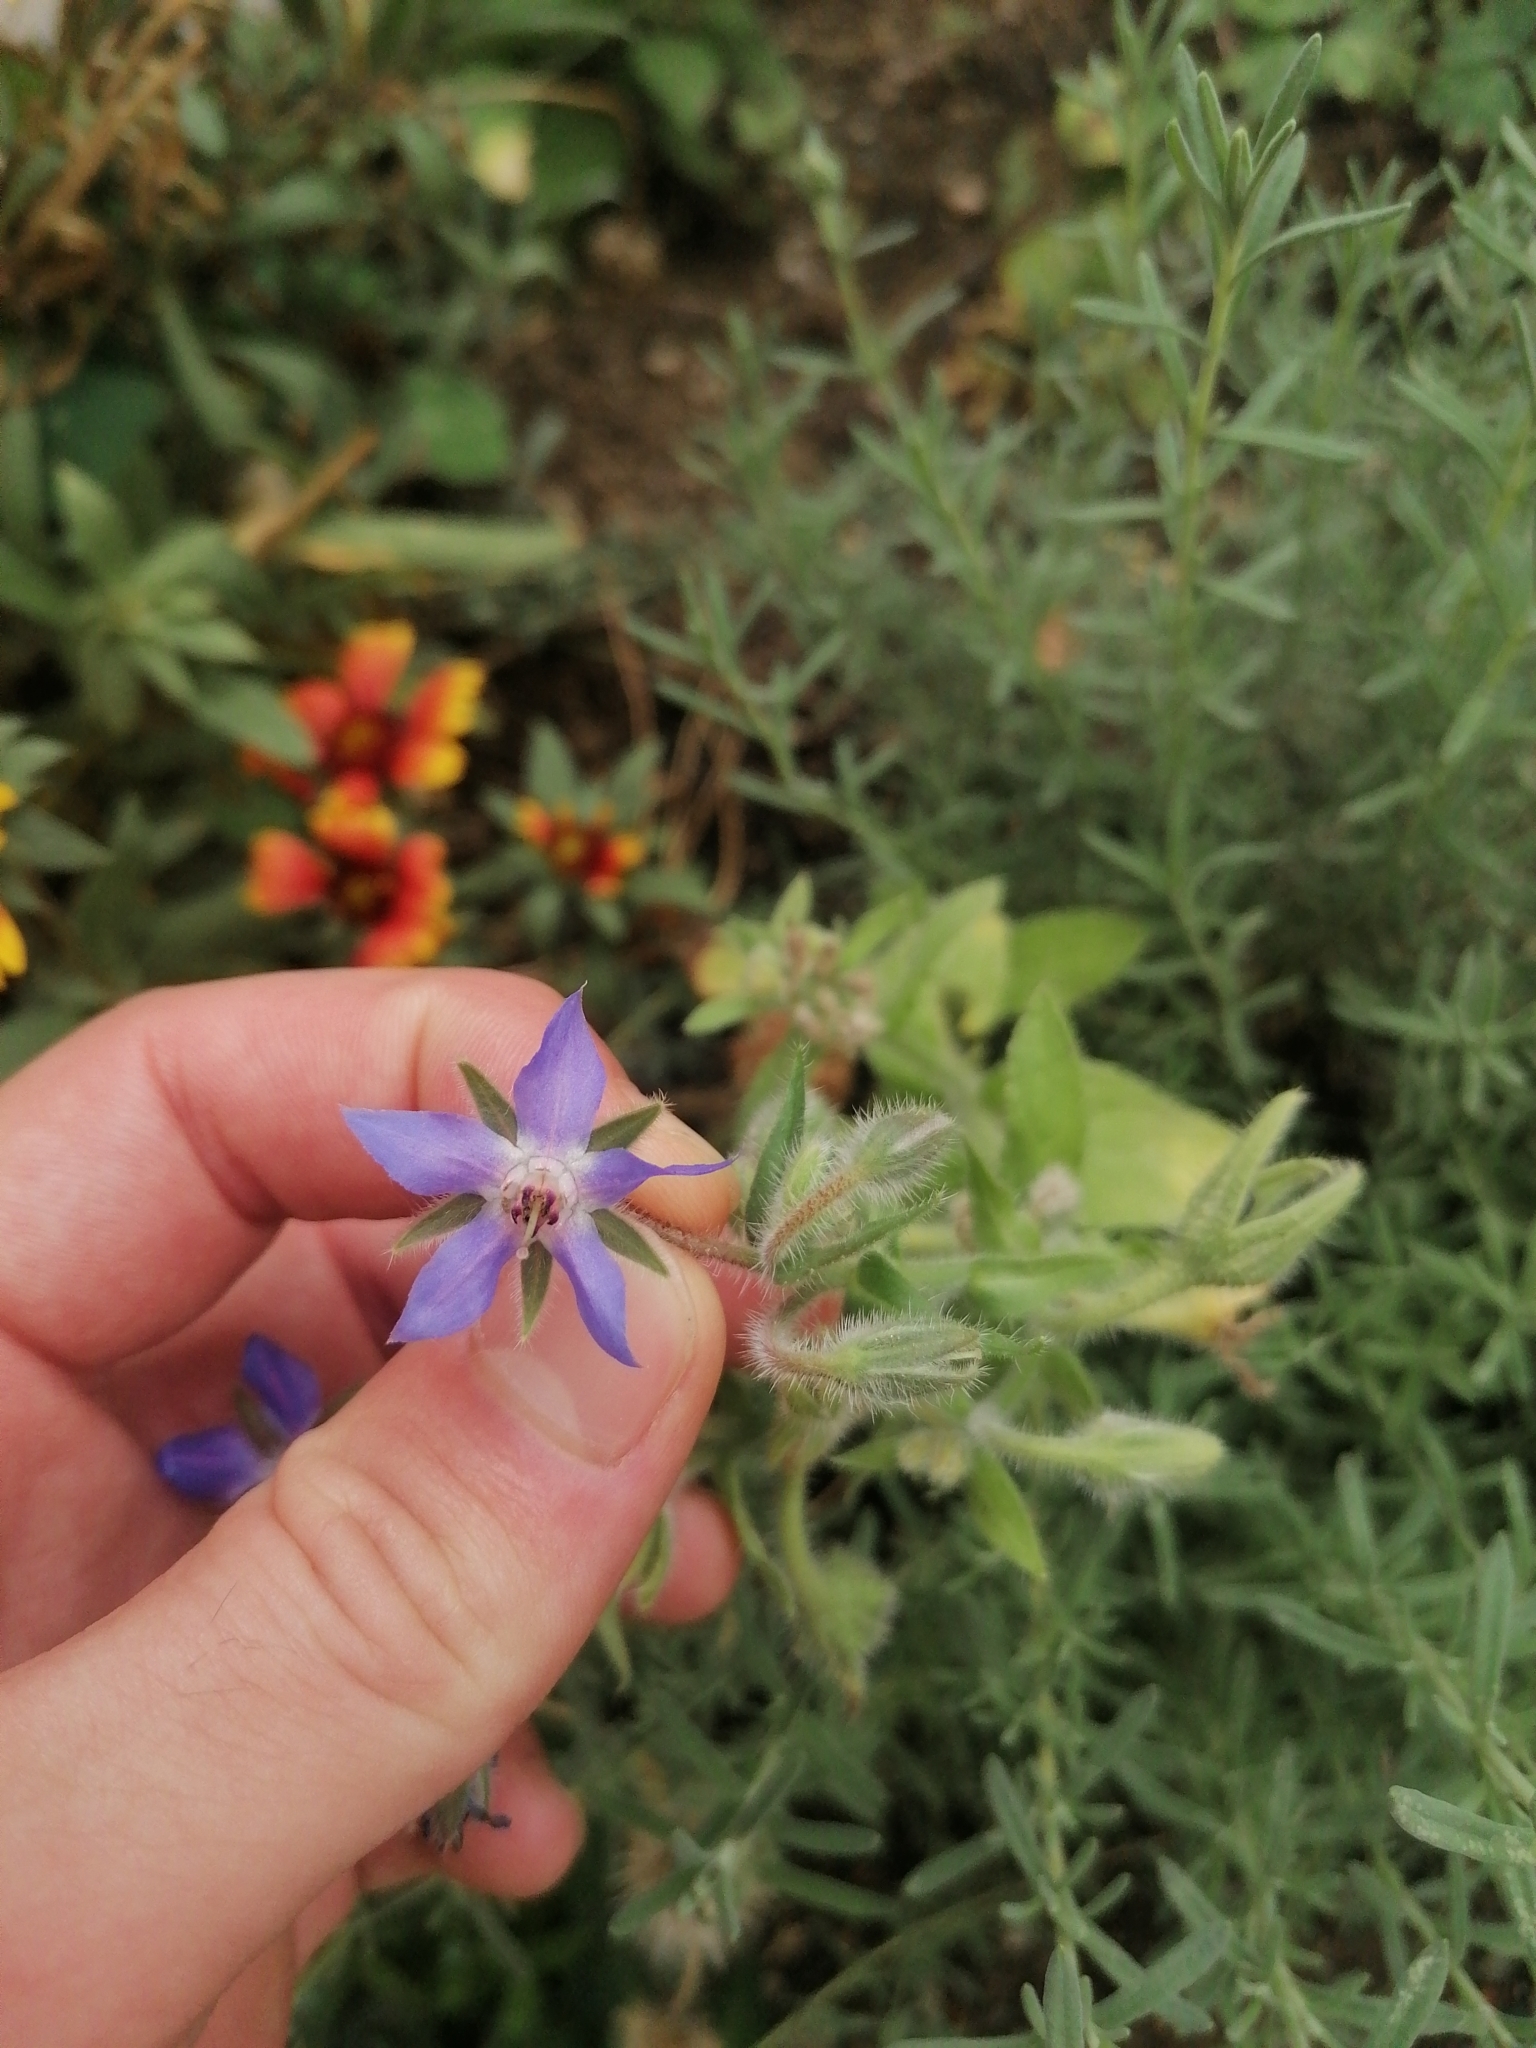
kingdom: Plantae
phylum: Tracheophyta
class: Magnoliopsida
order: Boraginales
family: Boraginaceae
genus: Borago
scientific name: Borago officinalis
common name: Borage
